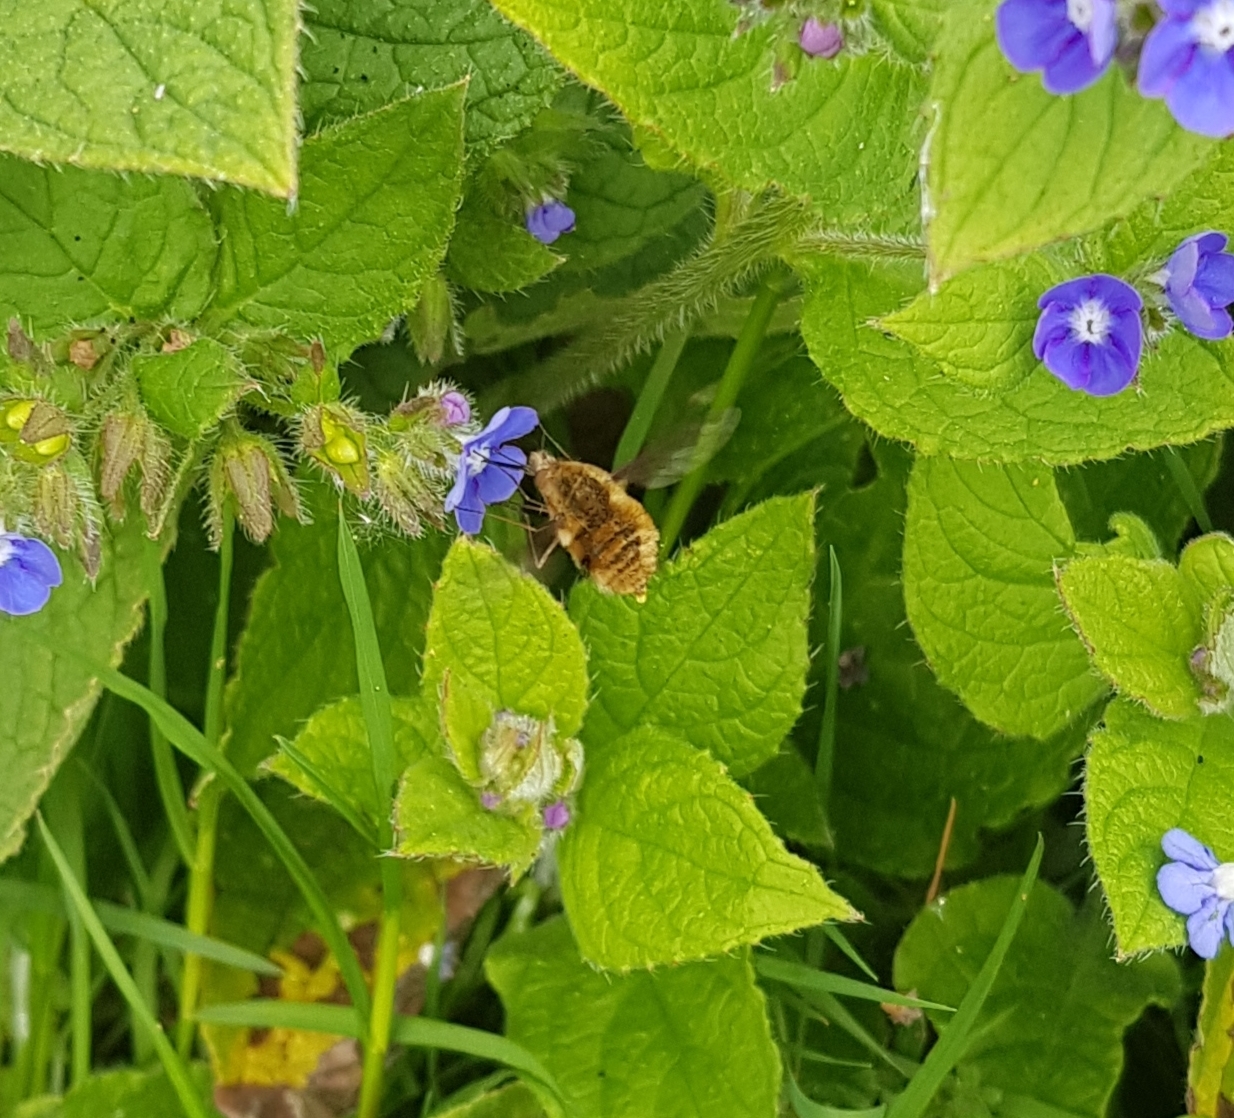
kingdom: Animalia
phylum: Arthropoda
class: Insecta
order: Diptera
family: Bombyliidae
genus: Bombylius
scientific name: Bombylius major
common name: Bee fly
